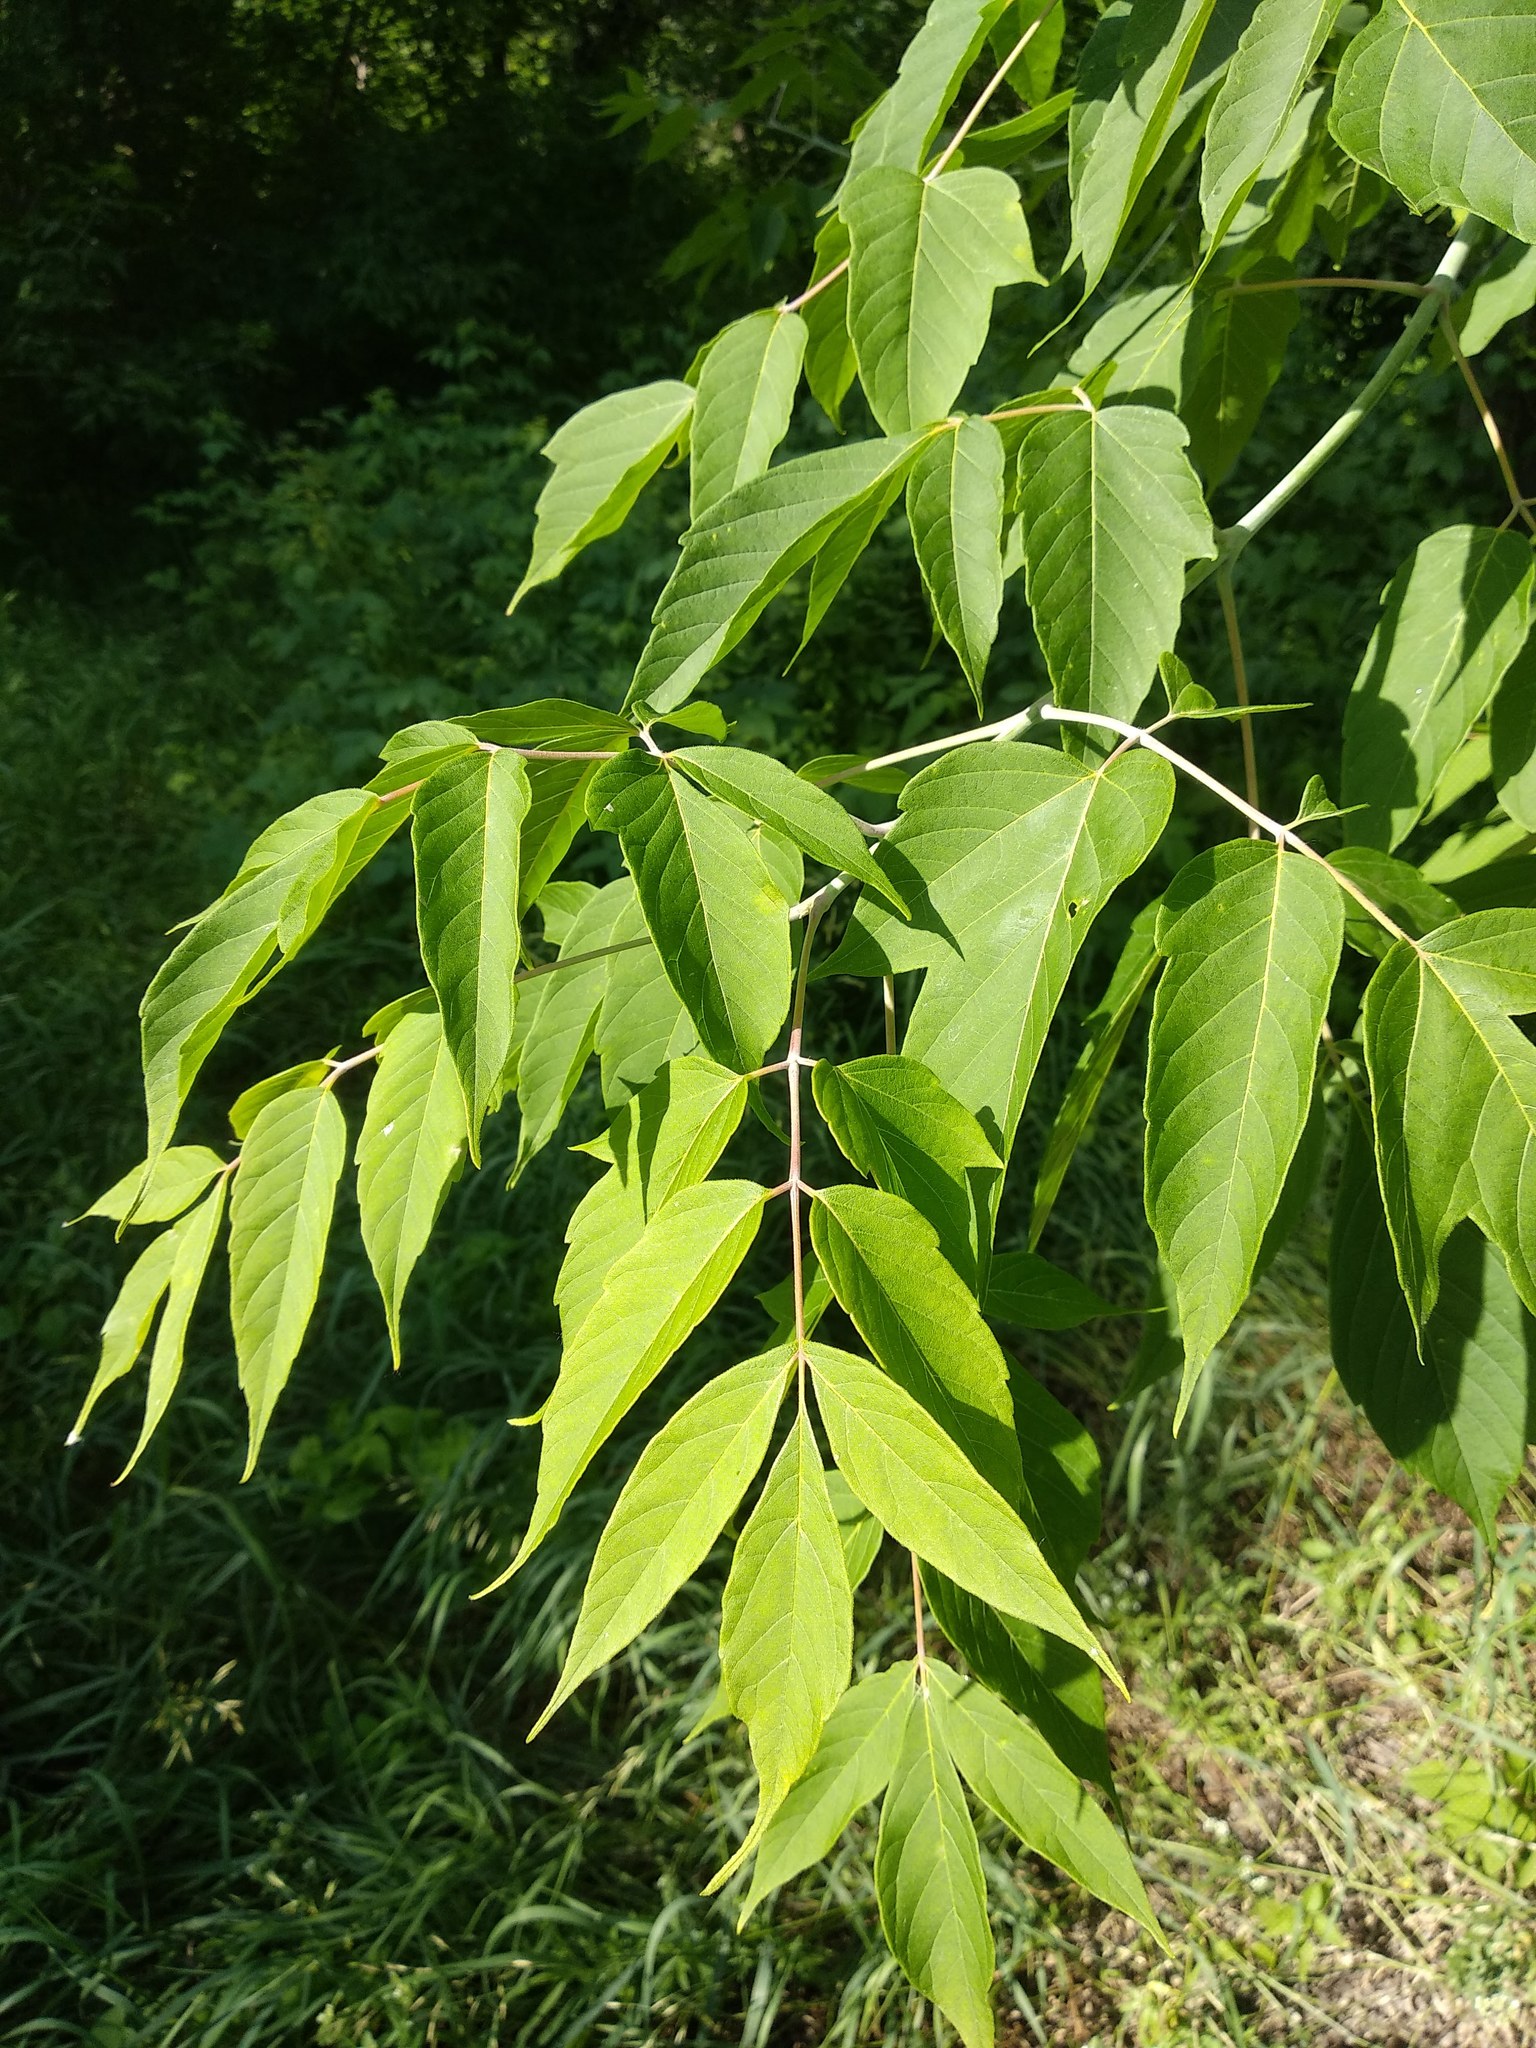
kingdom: Plantae
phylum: Tracheophyta
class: Magnoliopsida
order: Sapindales
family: Sapindaceae
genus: Acer
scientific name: Acer negundo
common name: Ashleaf maple
